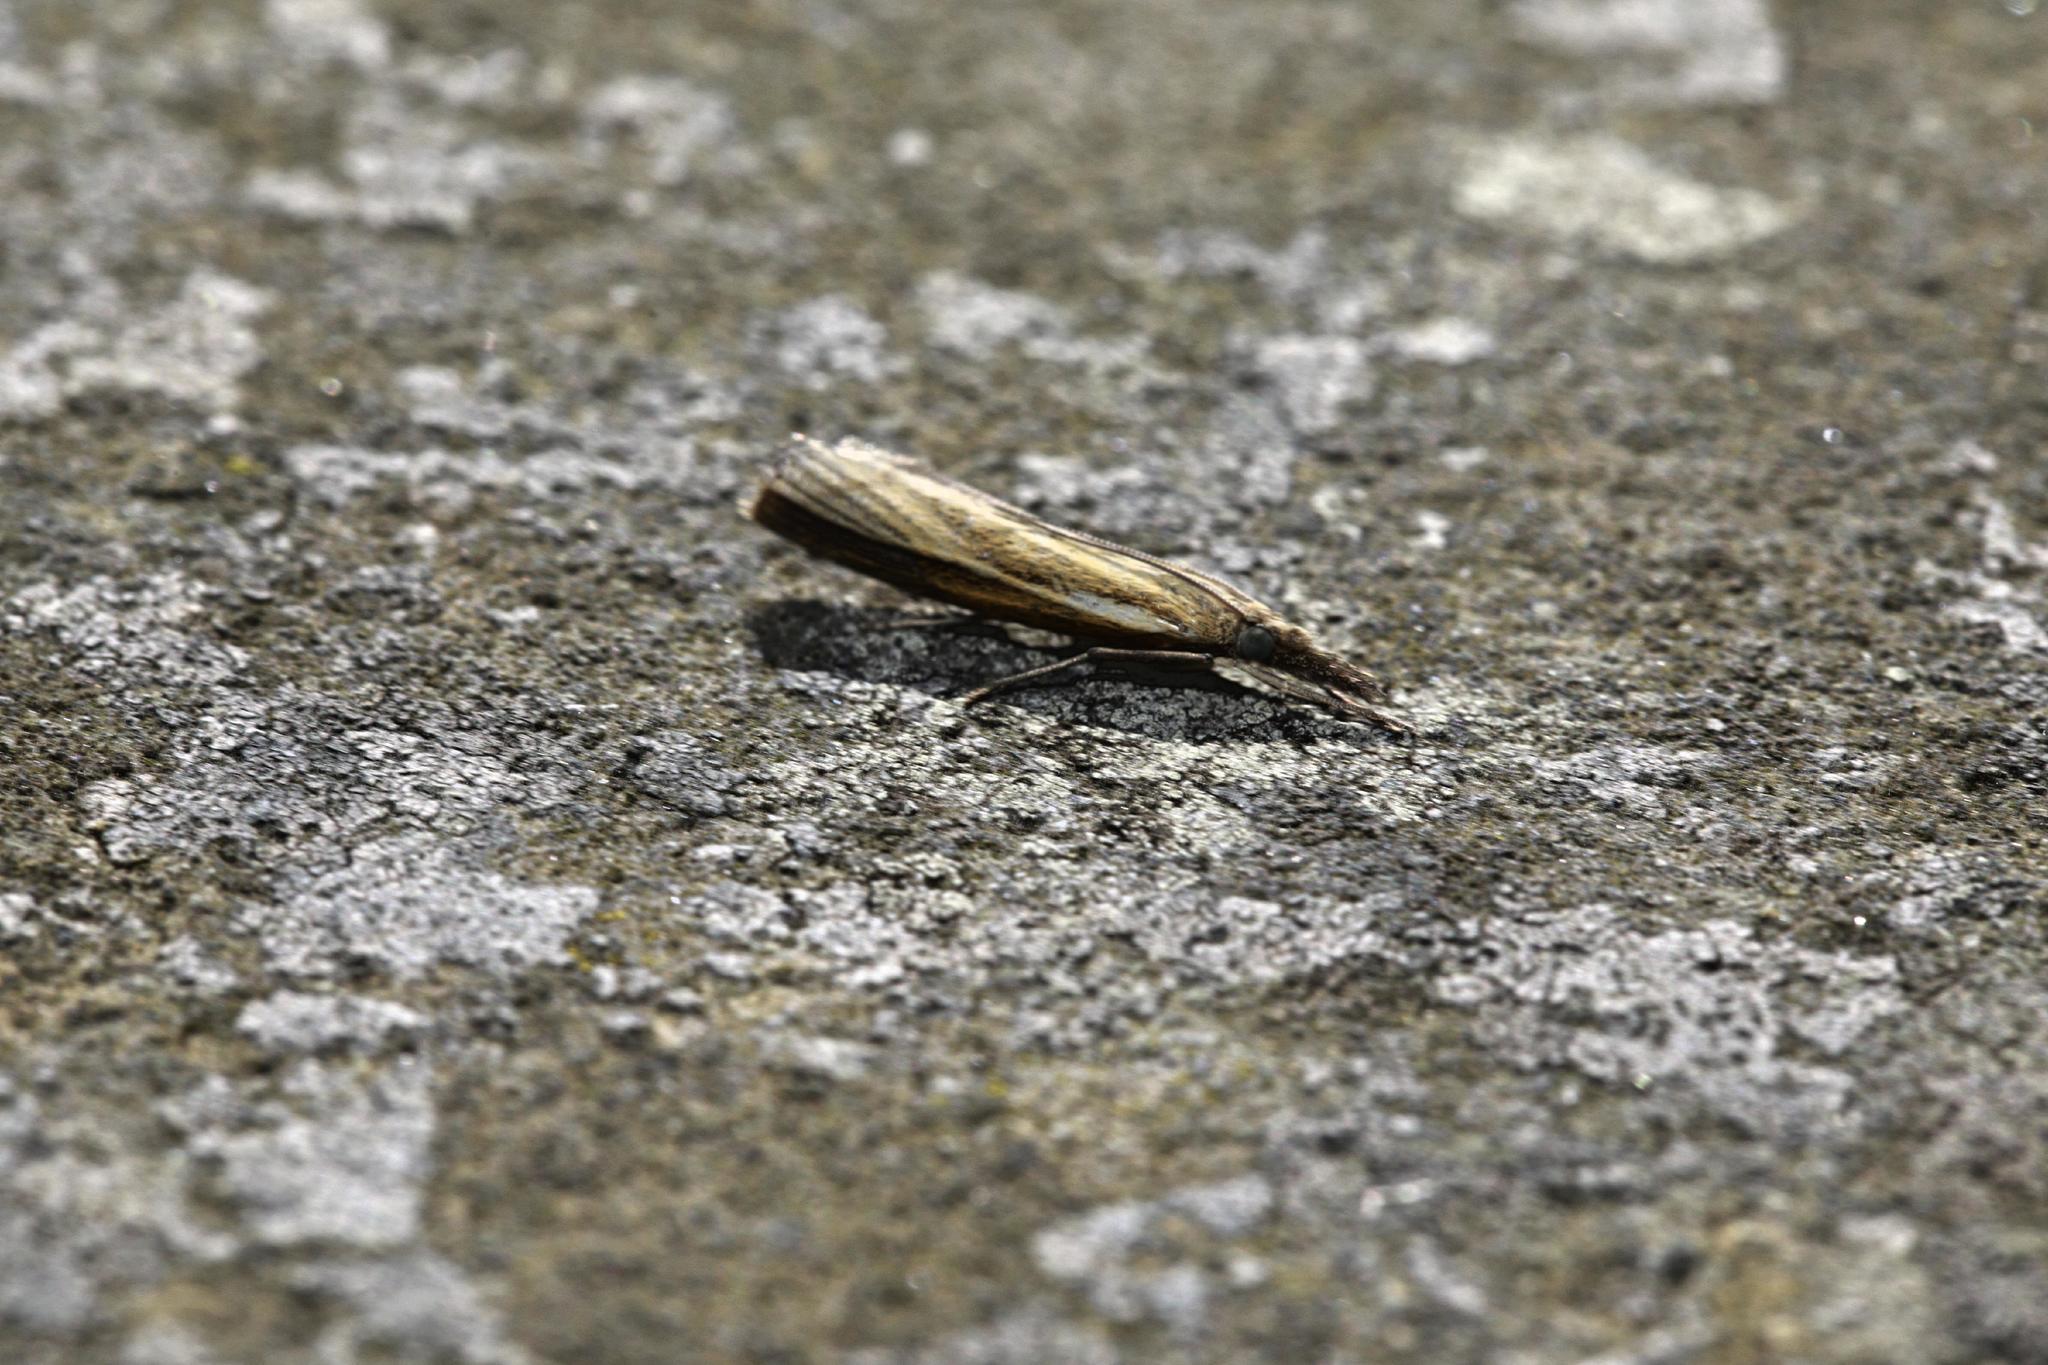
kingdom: Animalia
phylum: Arthropoda
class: Insecta
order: Lepidoptera
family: Crambidae
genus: Agriphila
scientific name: Agriphila tristellus
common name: Common grass-veneer
